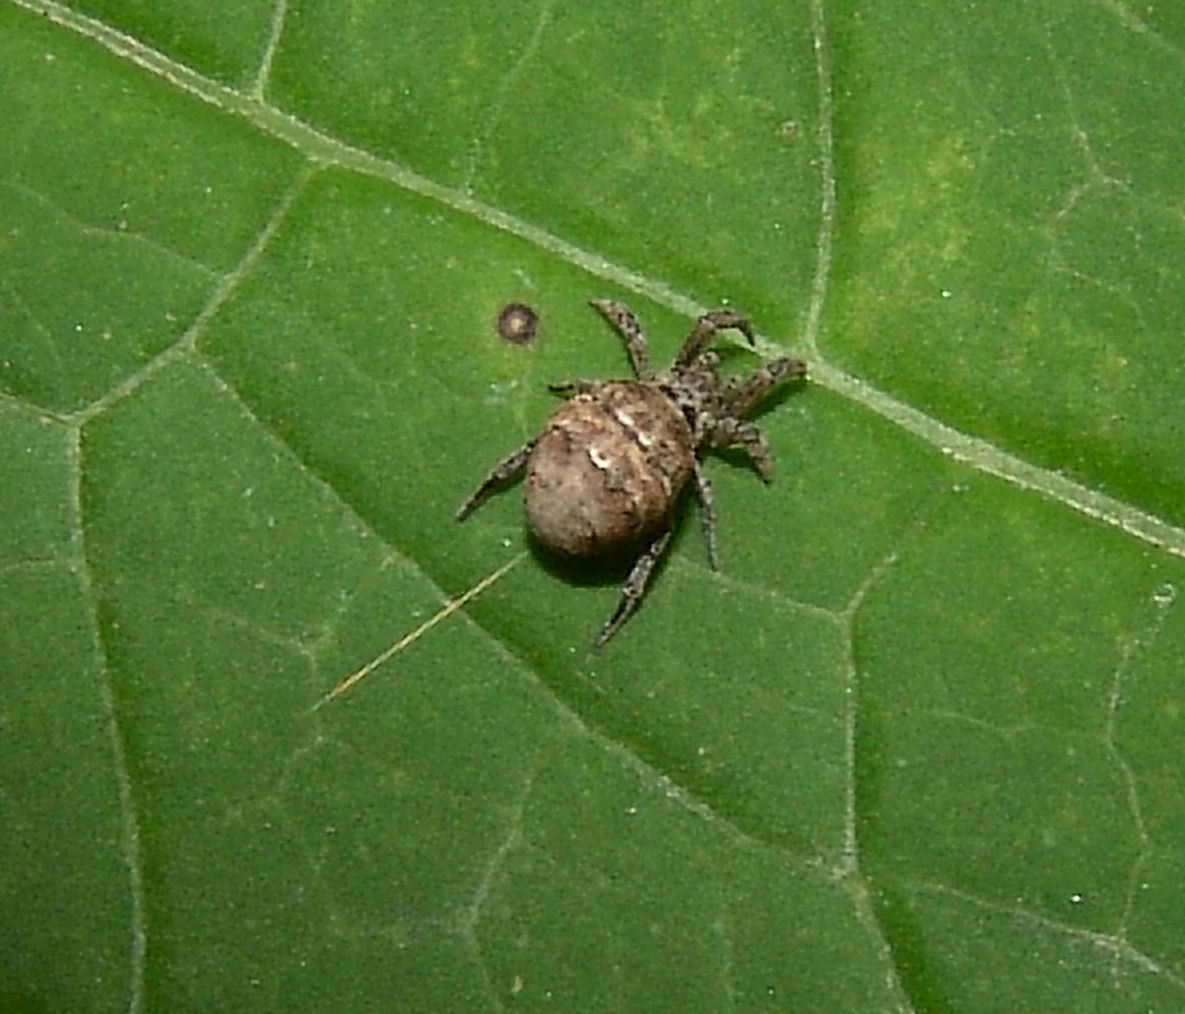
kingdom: Animalia
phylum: Arthropoda
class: Arachnida
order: Araneae
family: Uloboridae
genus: Hyptiotes
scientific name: Hyptiotes cavatus
